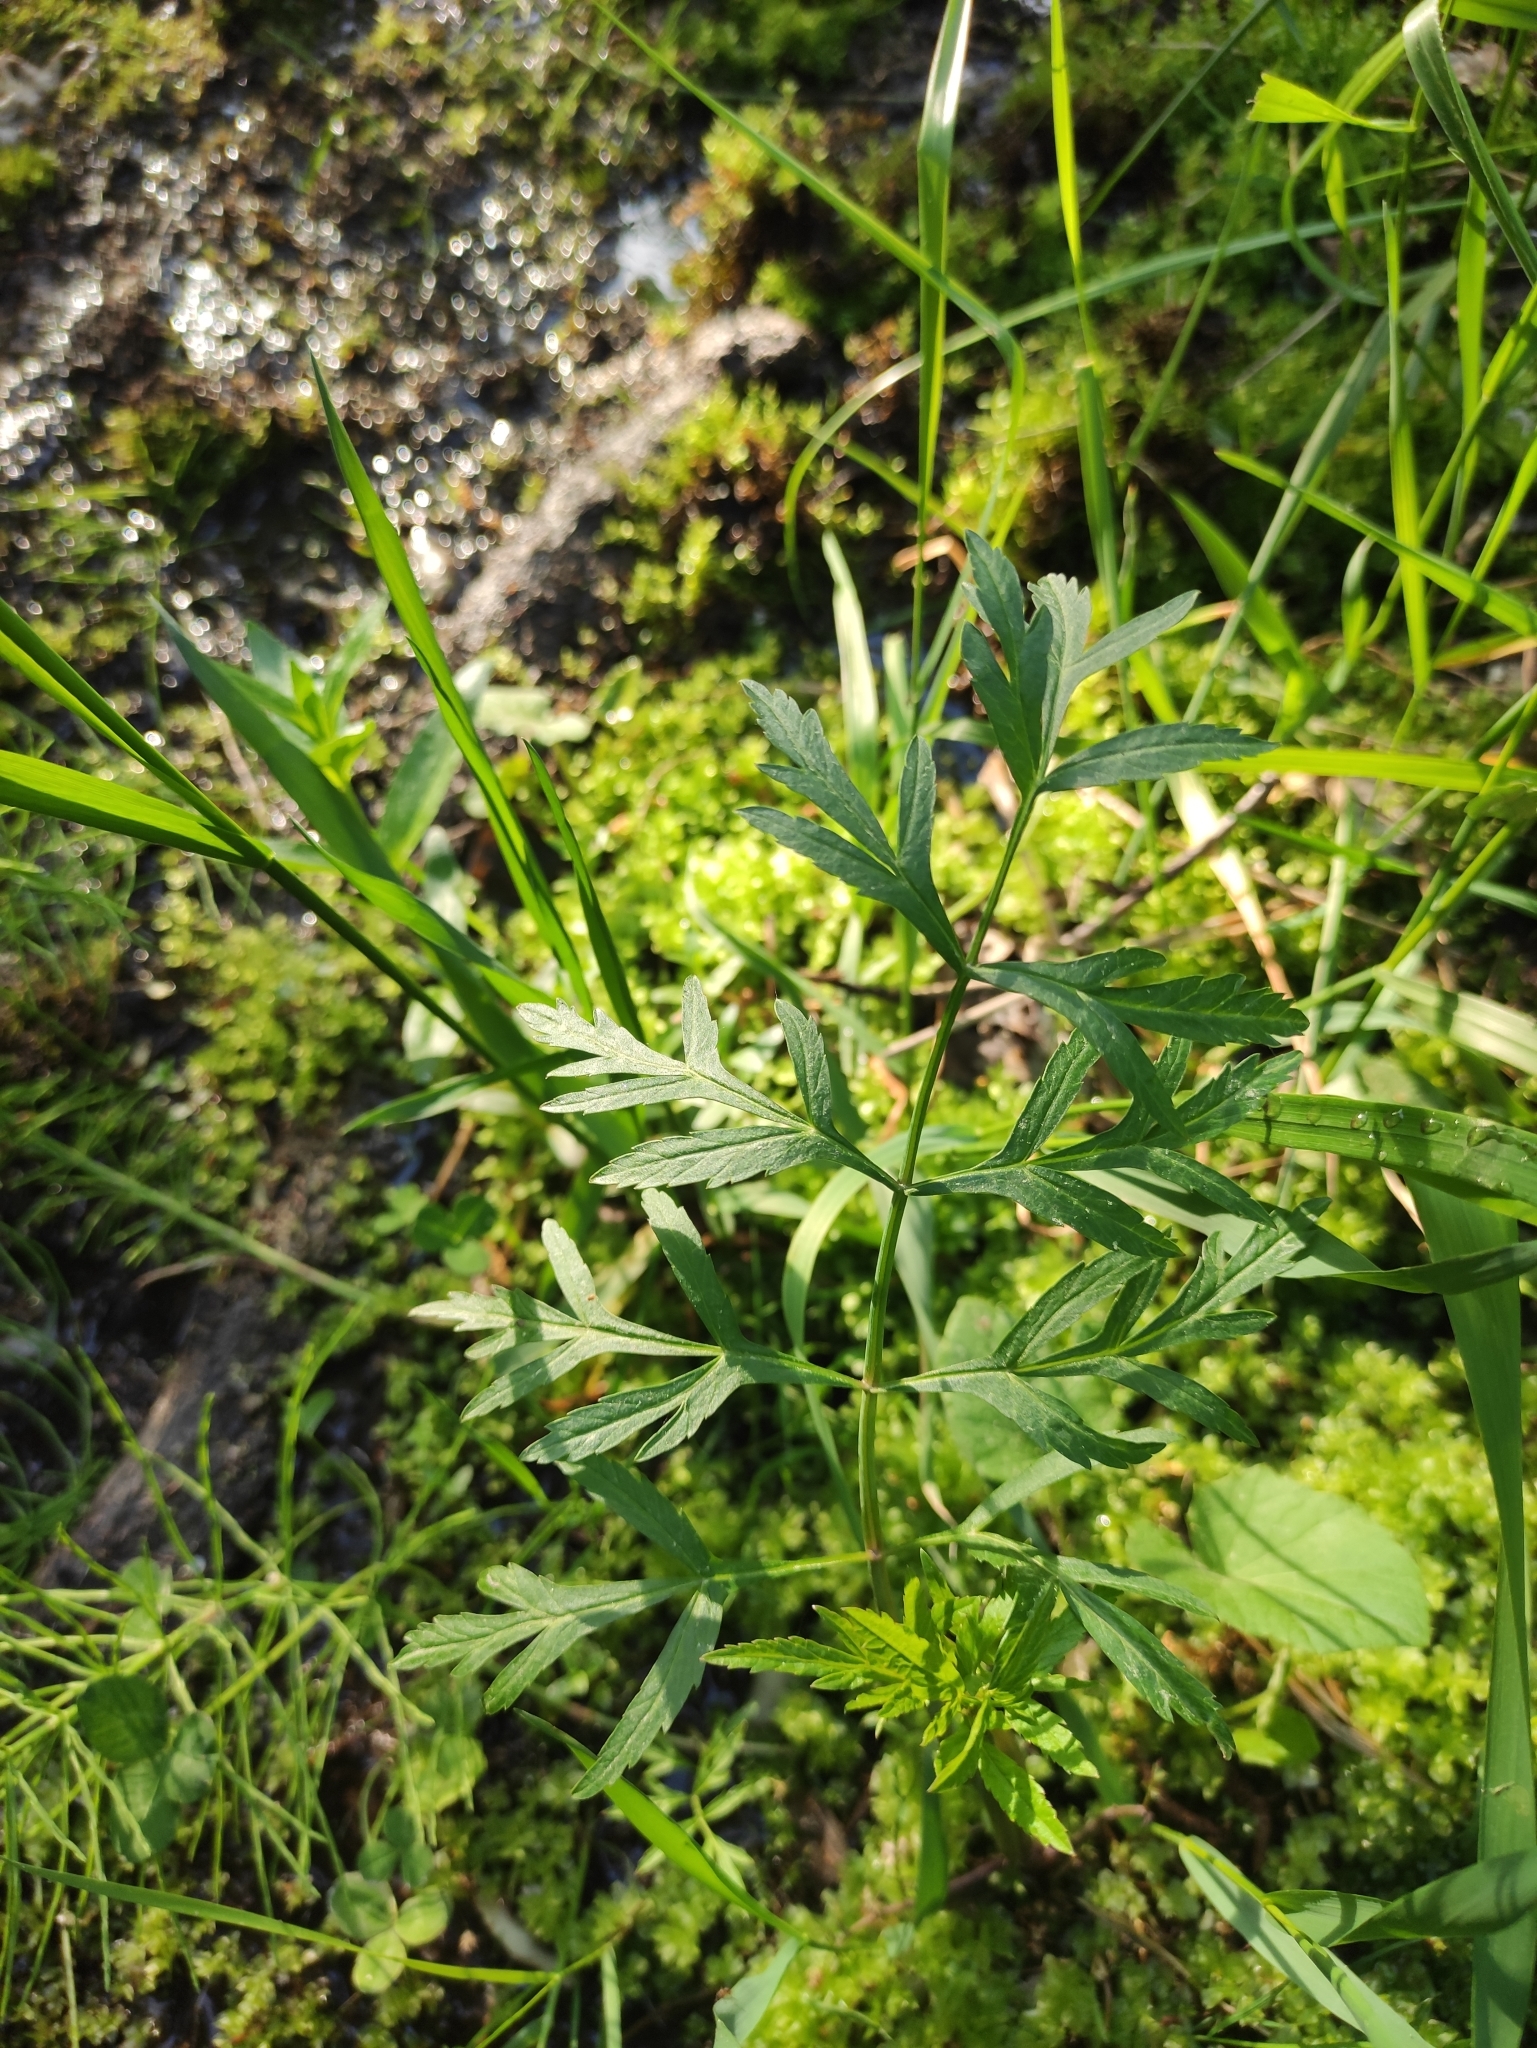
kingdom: Plantae
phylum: Tracheophyta
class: Magnoliopsida
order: Apiales
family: Apiaceae
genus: Cicuta
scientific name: Cicuta virosa
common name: Cowbane
